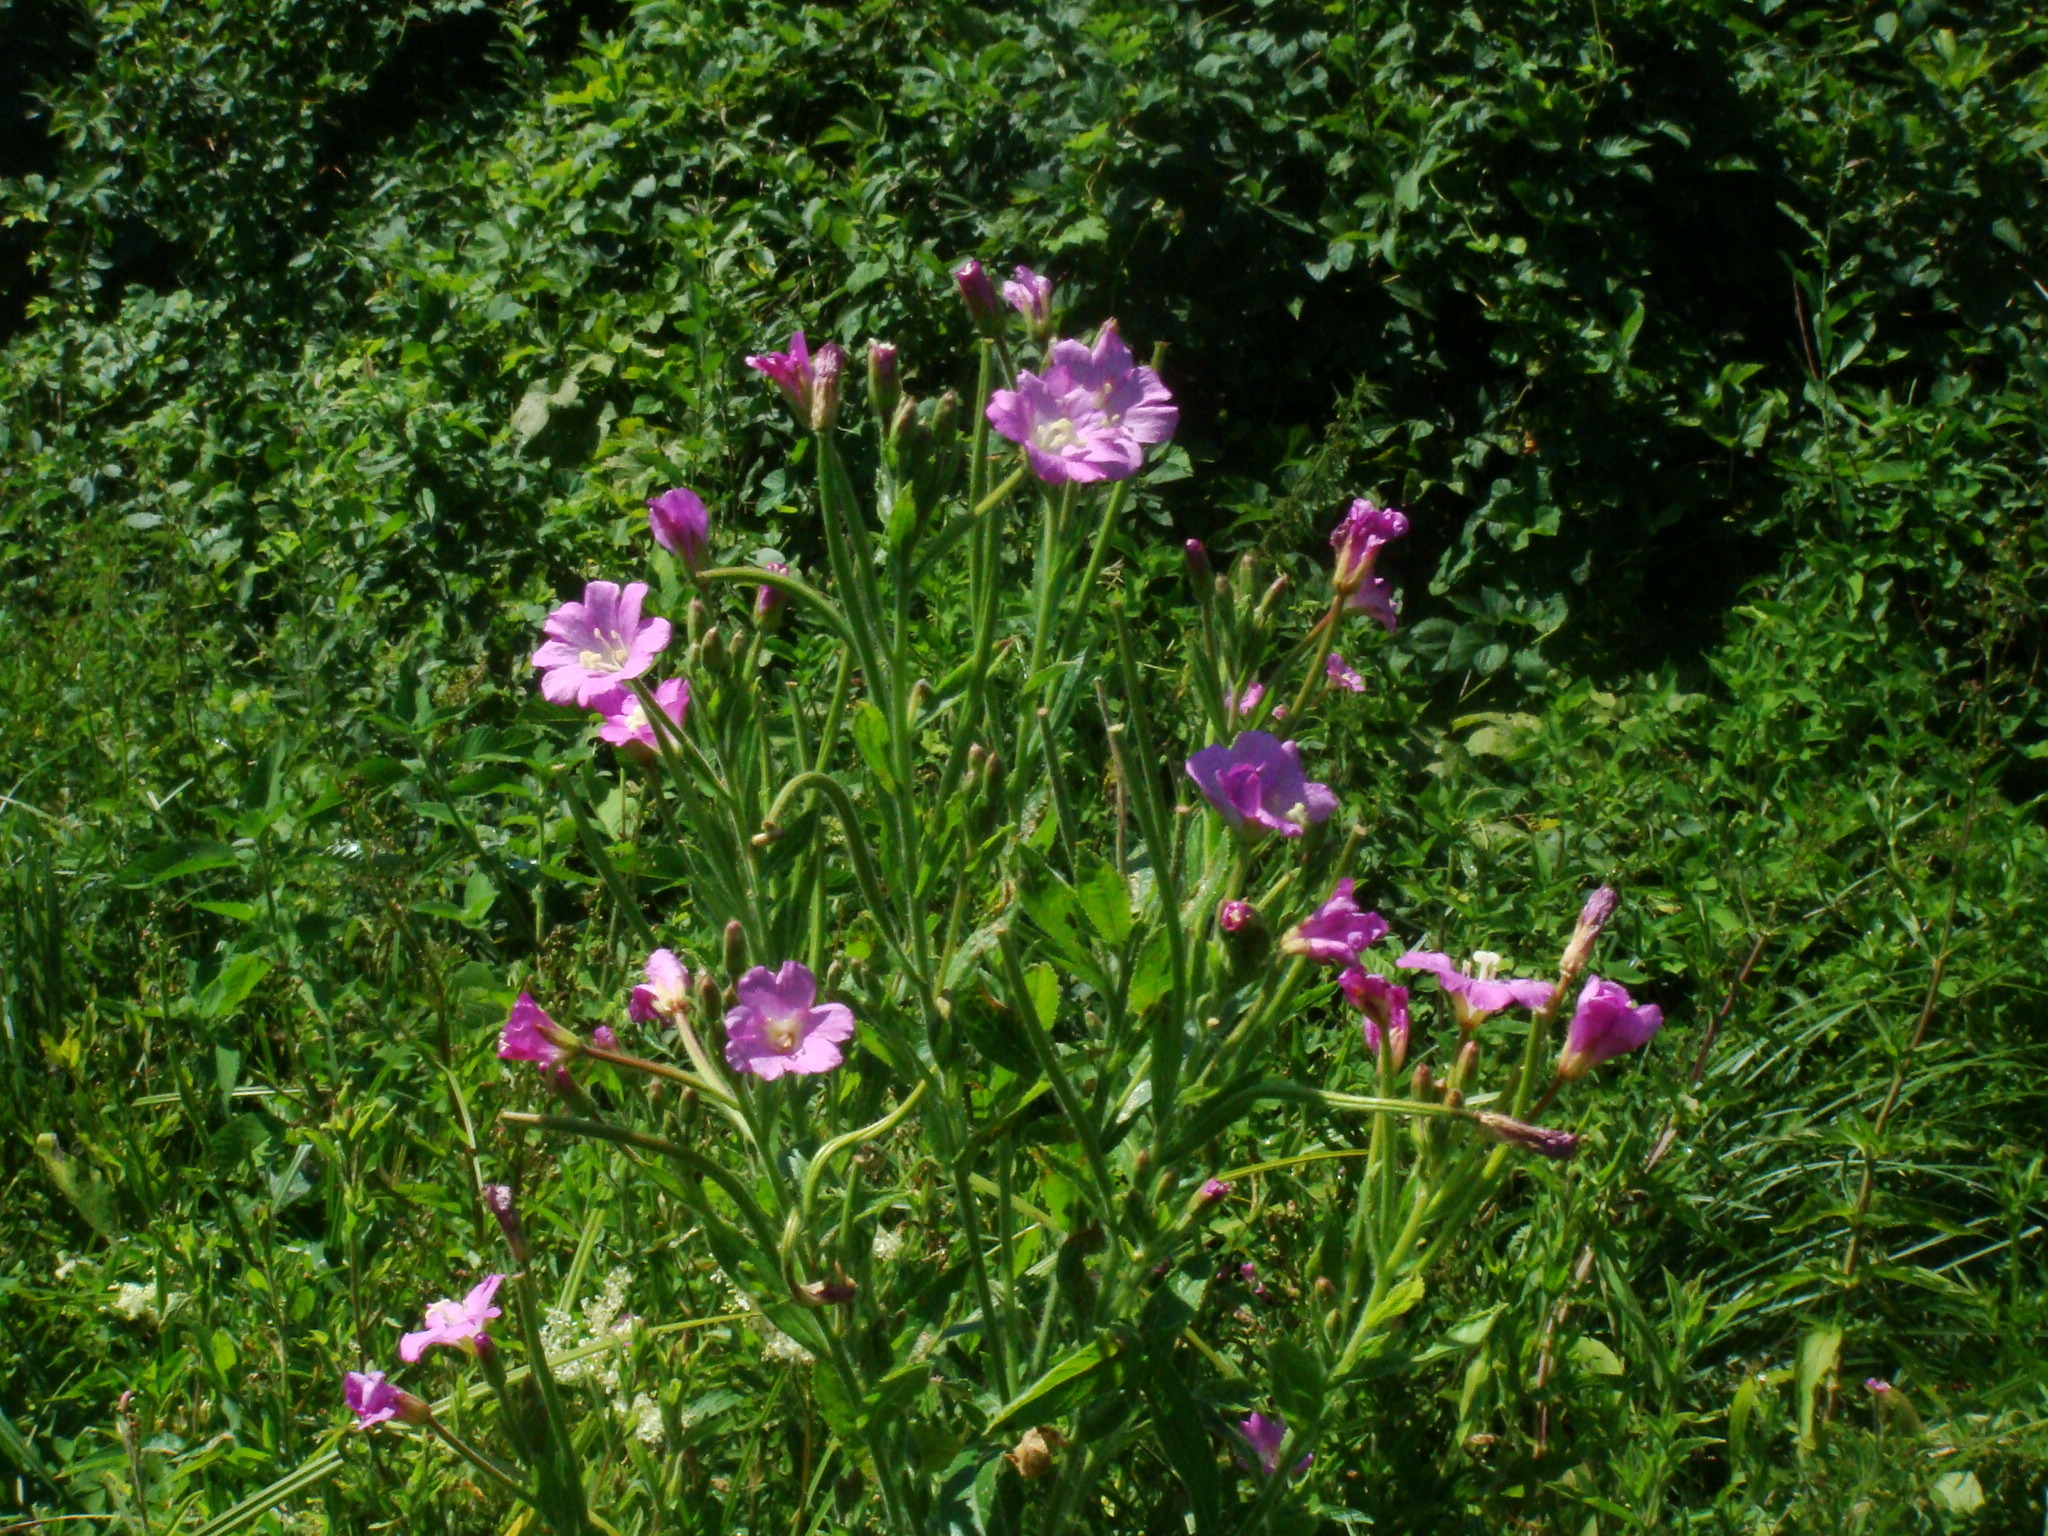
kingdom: Plantae
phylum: Tracheophyta
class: Magnoliopsida
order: Myrtales
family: Onagraceae
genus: Epilobium
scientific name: Epilobium hirsutum
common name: Great willowherb
